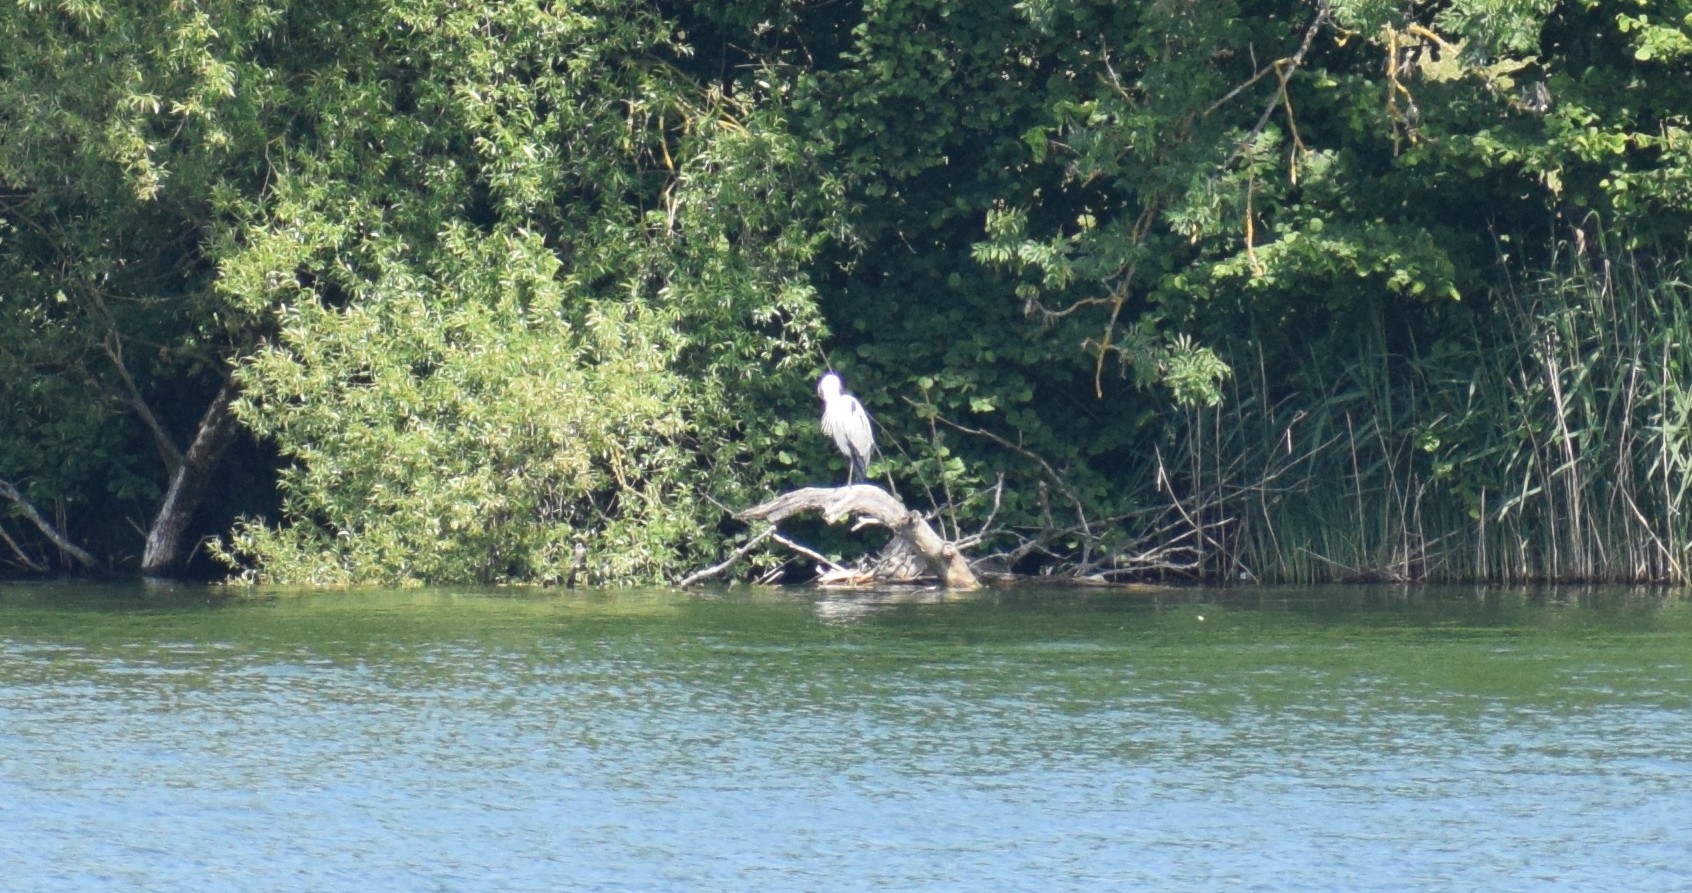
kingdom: Animalia
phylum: Chordata
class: Aves
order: Pelecaniformes
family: Ardeidae
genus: Ardea
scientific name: Ardea cinerea
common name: Grey heron
